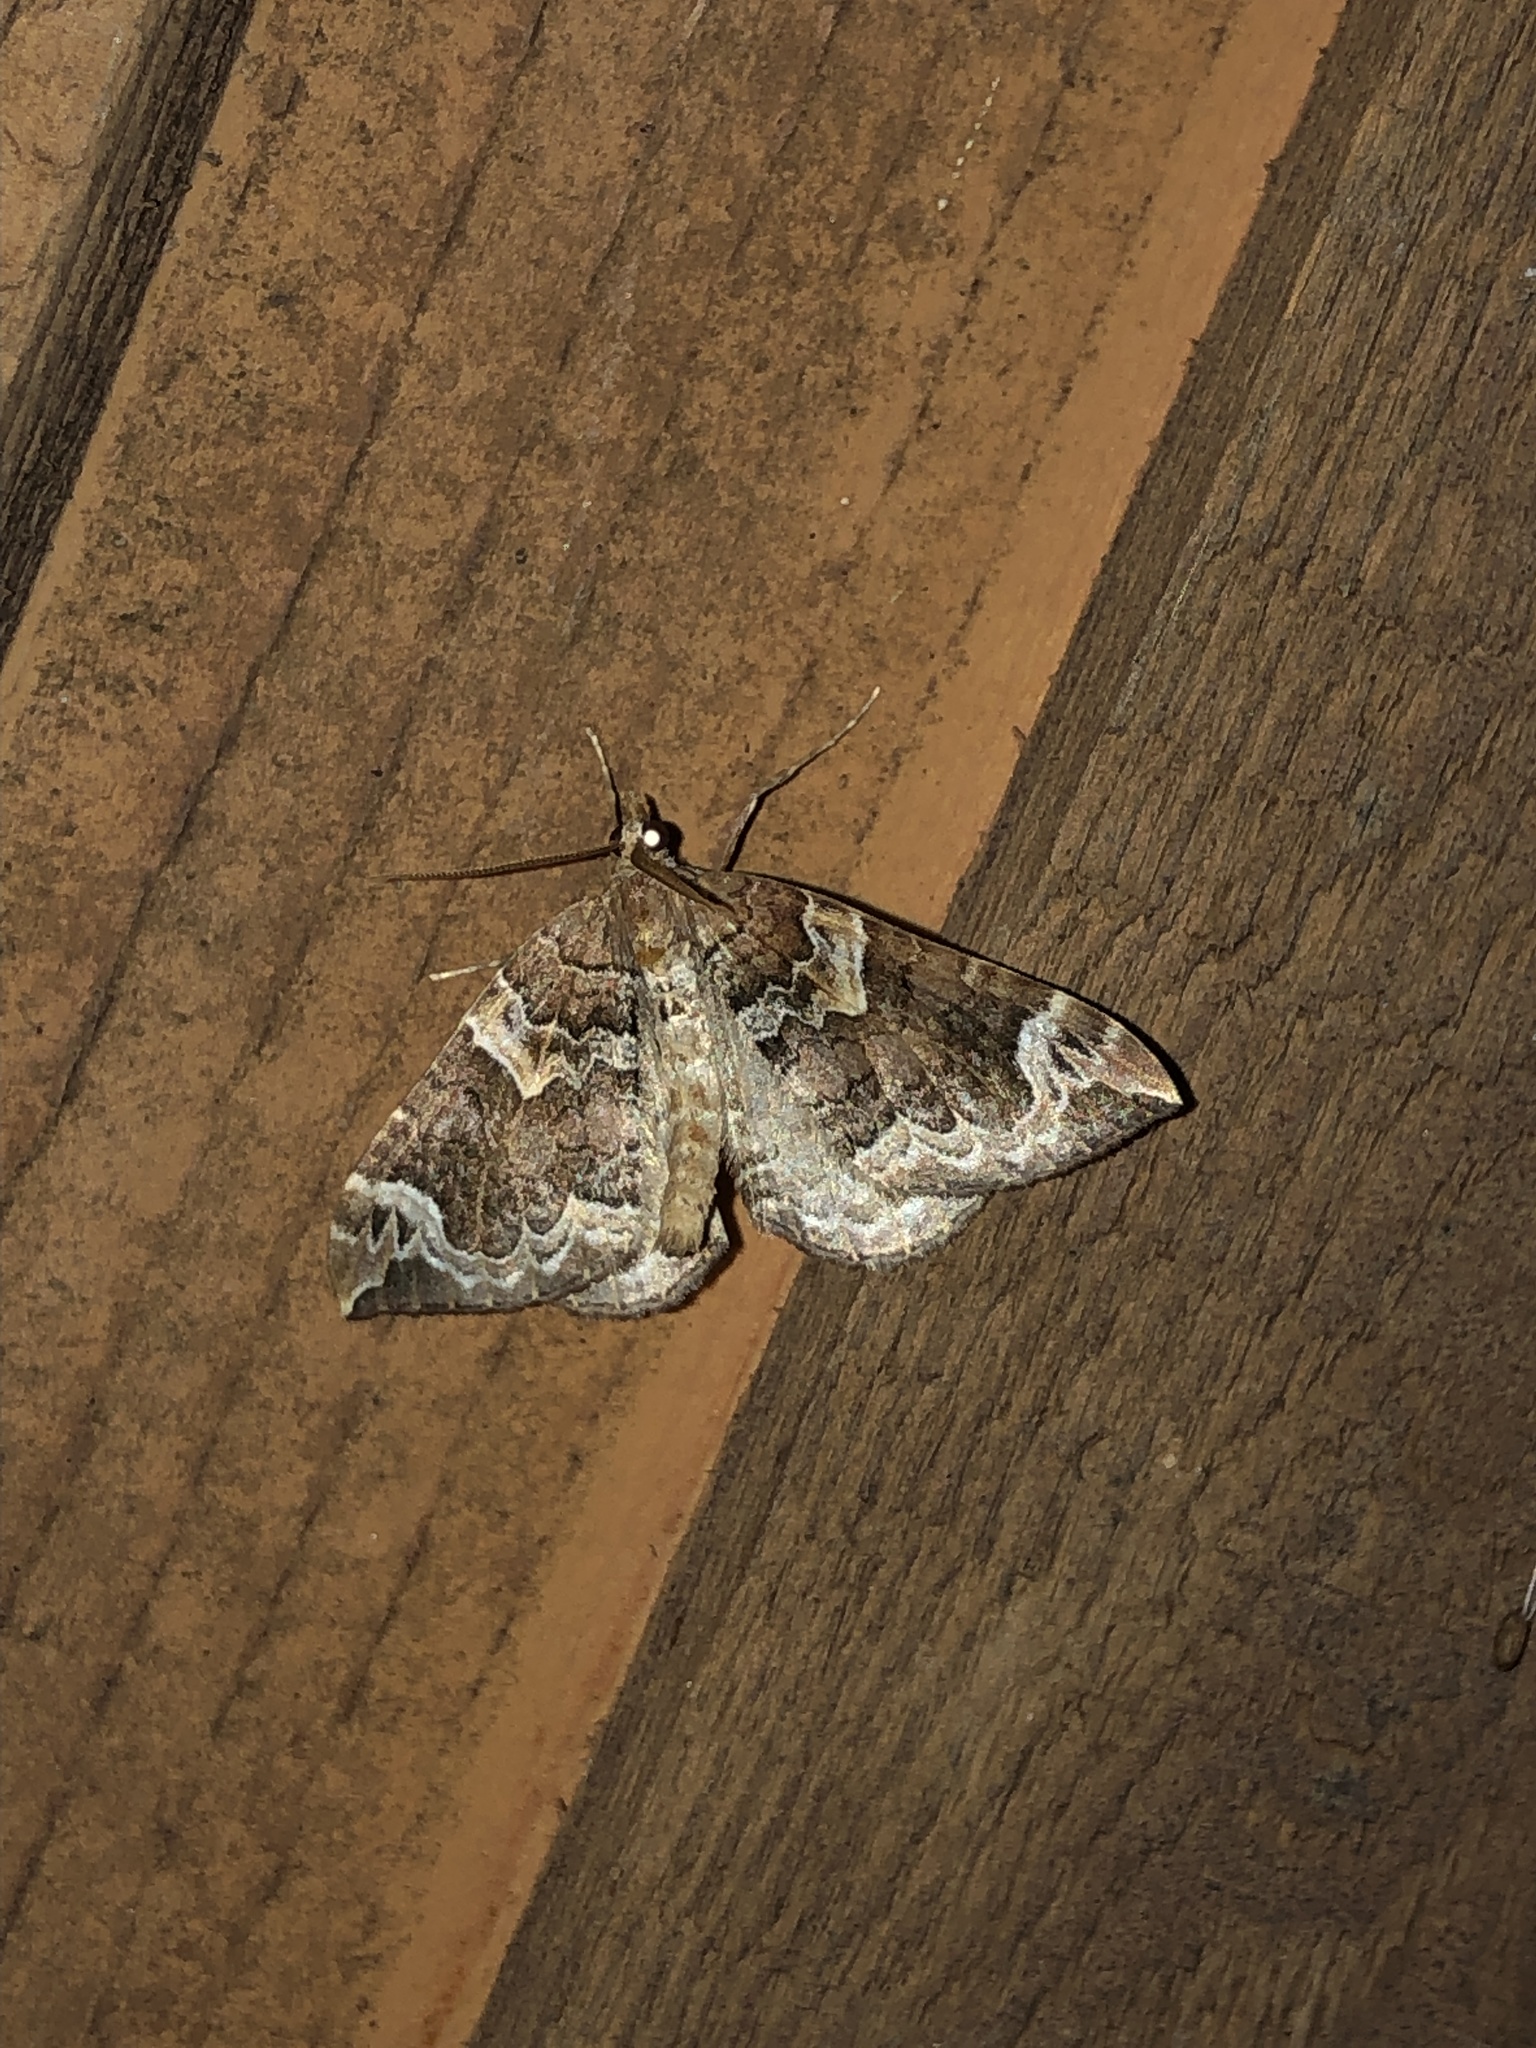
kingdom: Animalia
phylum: Arthropoda
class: Insecta
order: Lepidoptera
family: Geometridae
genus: Eulithis
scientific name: Eulithis xylina
